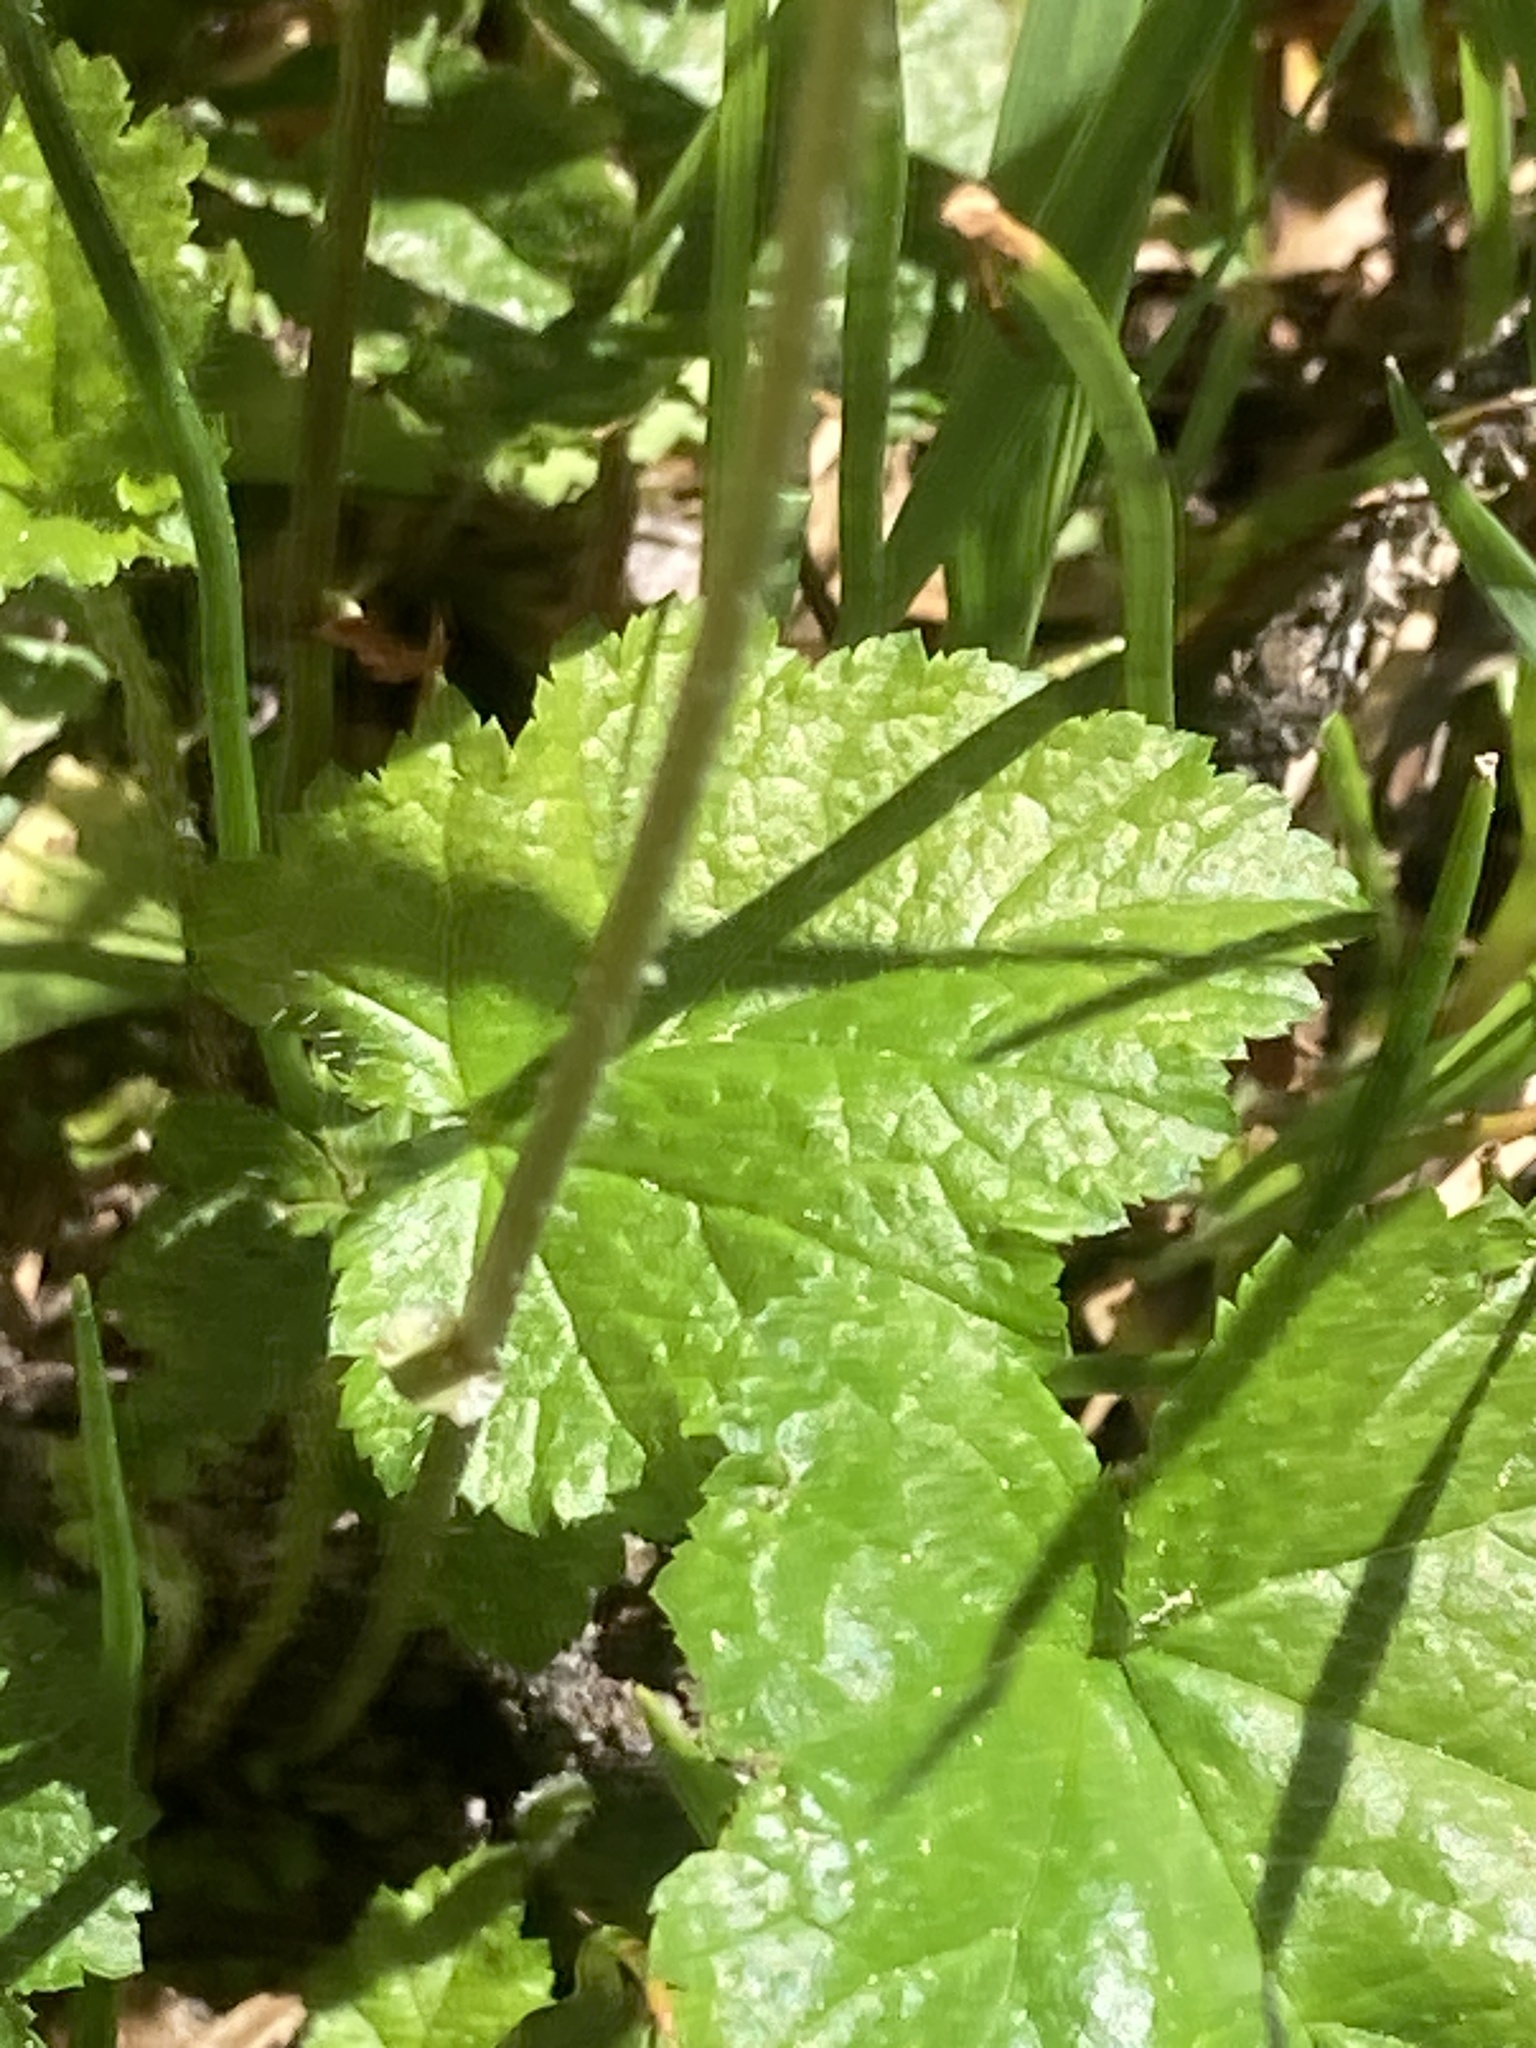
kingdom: Plantae
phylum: Tracheophyta
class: Magnoliopsida
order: Saxifragales
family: Saxifragaceae
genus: Pectiantia
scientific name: Pectiantia pentandra
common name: Alpine bishop's-cap
